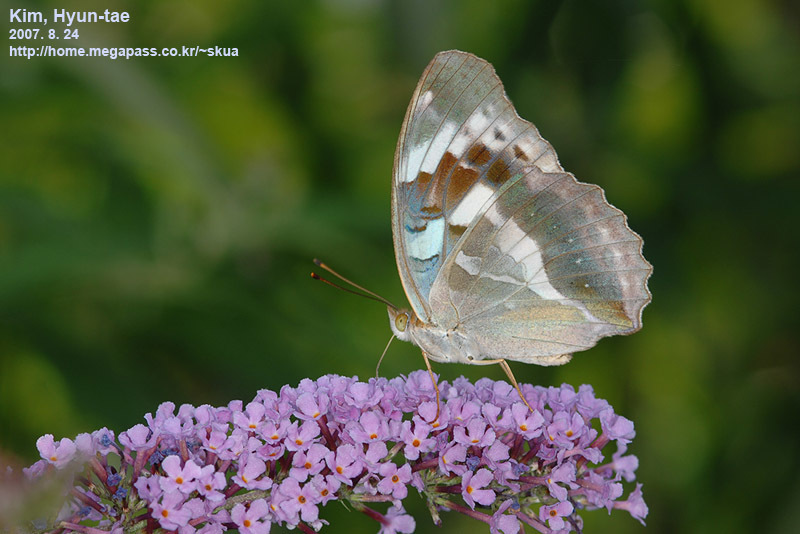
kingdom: Animalia
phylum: Arthropoda
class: Insecta
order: Lepidoptera
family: Nymphalidae
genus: Damora
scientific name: Damora sagana
